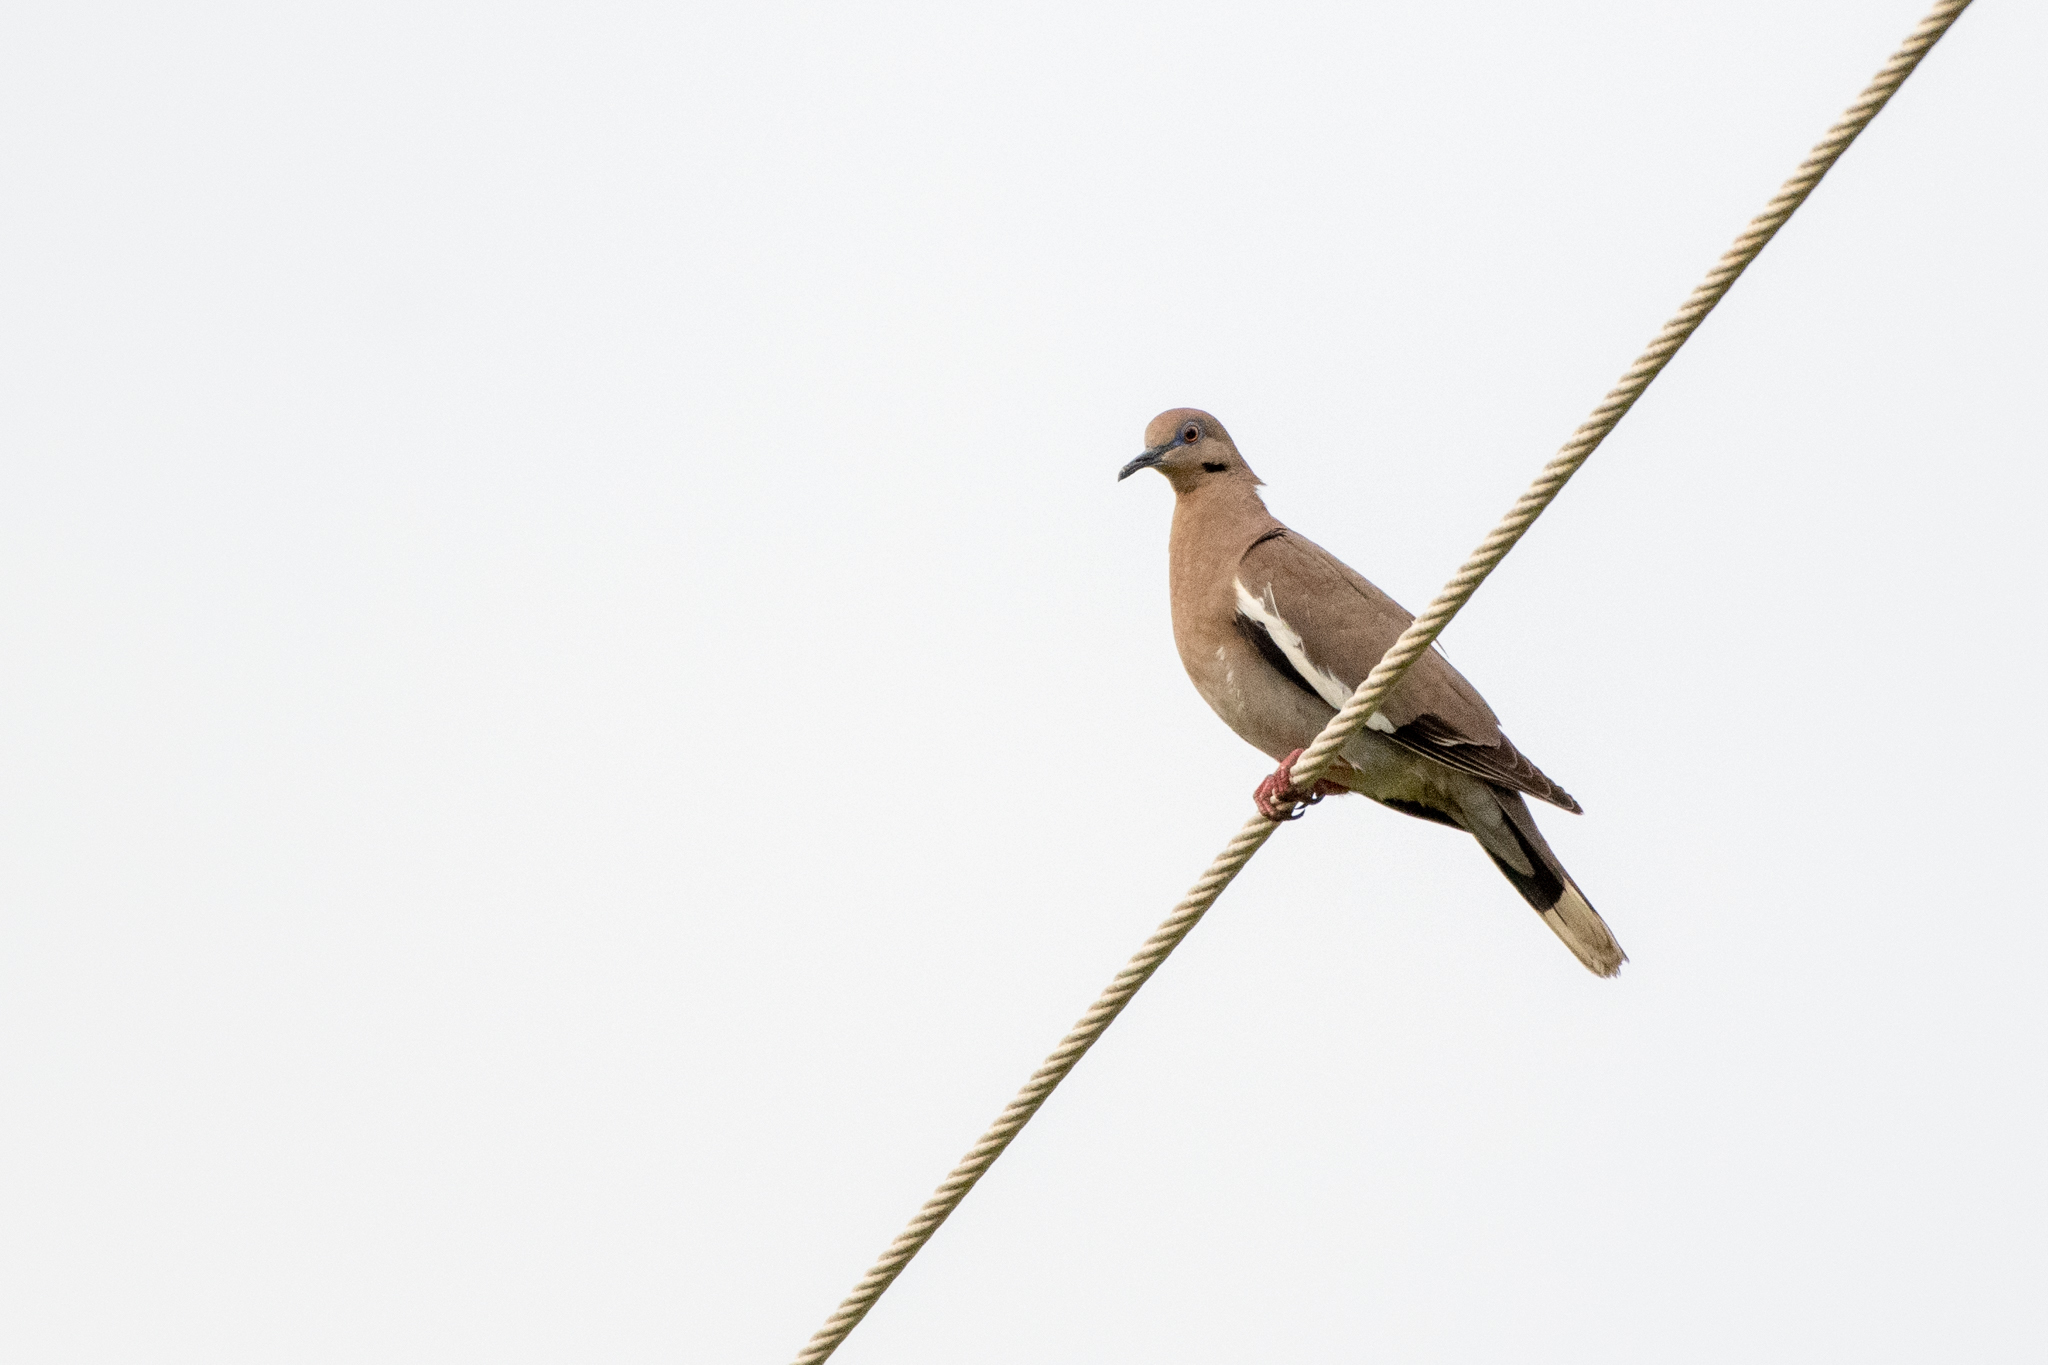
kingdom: Animalia
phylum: Chordata
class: Aves
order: Columbiformes
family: Columbidae
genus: Zenaida
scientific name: Zenaida asiatica
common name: White-winged dove
